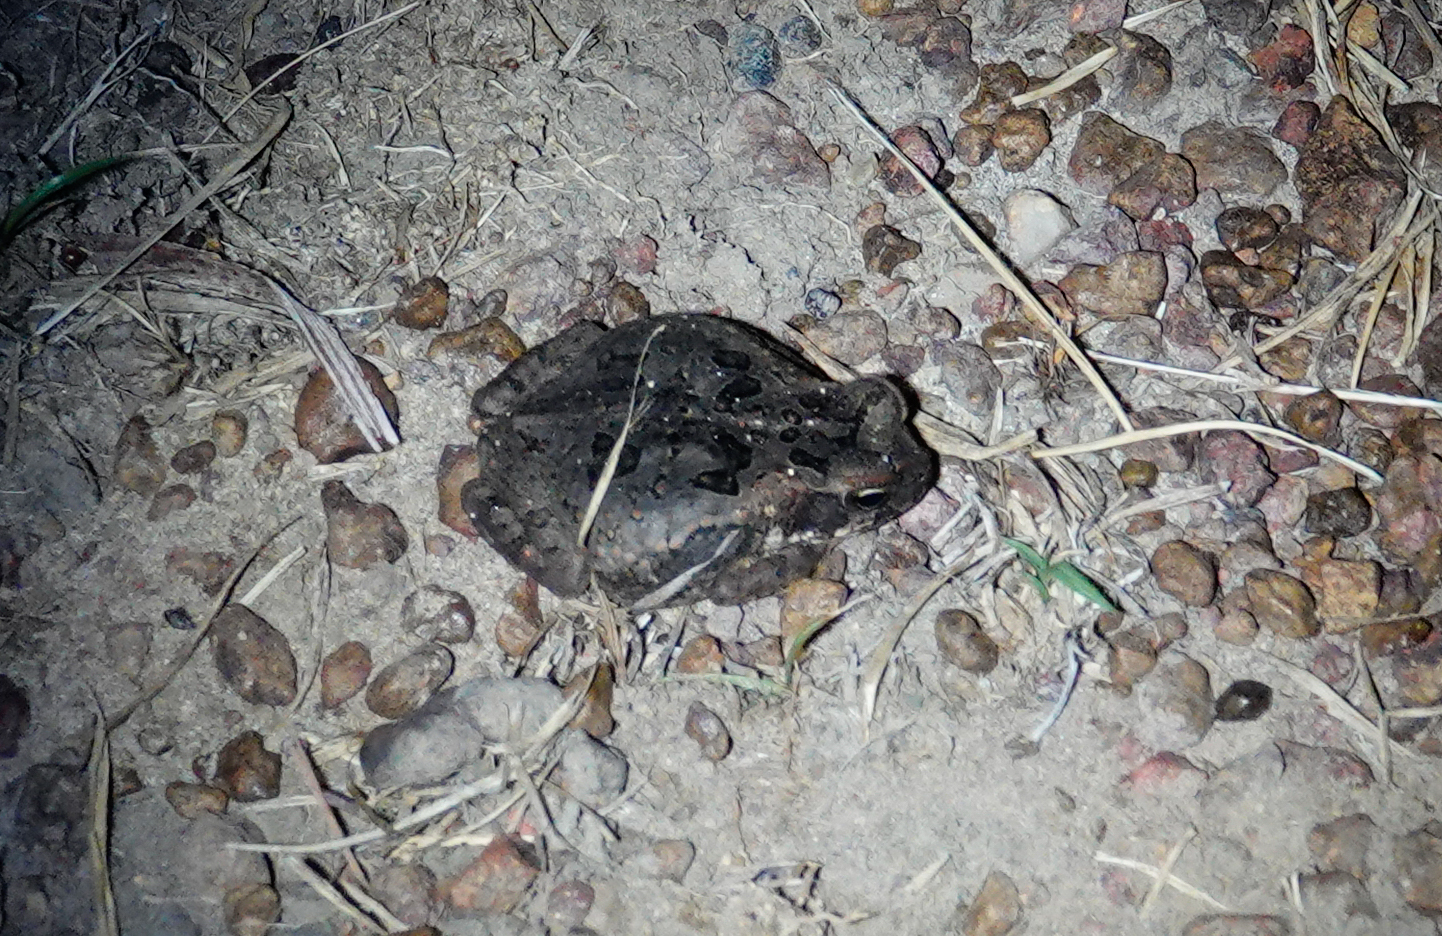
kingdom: Animalia
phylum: Chordata
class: Amphibia
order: Anura
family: Bufonidae
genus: Rhinella
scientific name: Rhinella marina
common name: Cane toad
